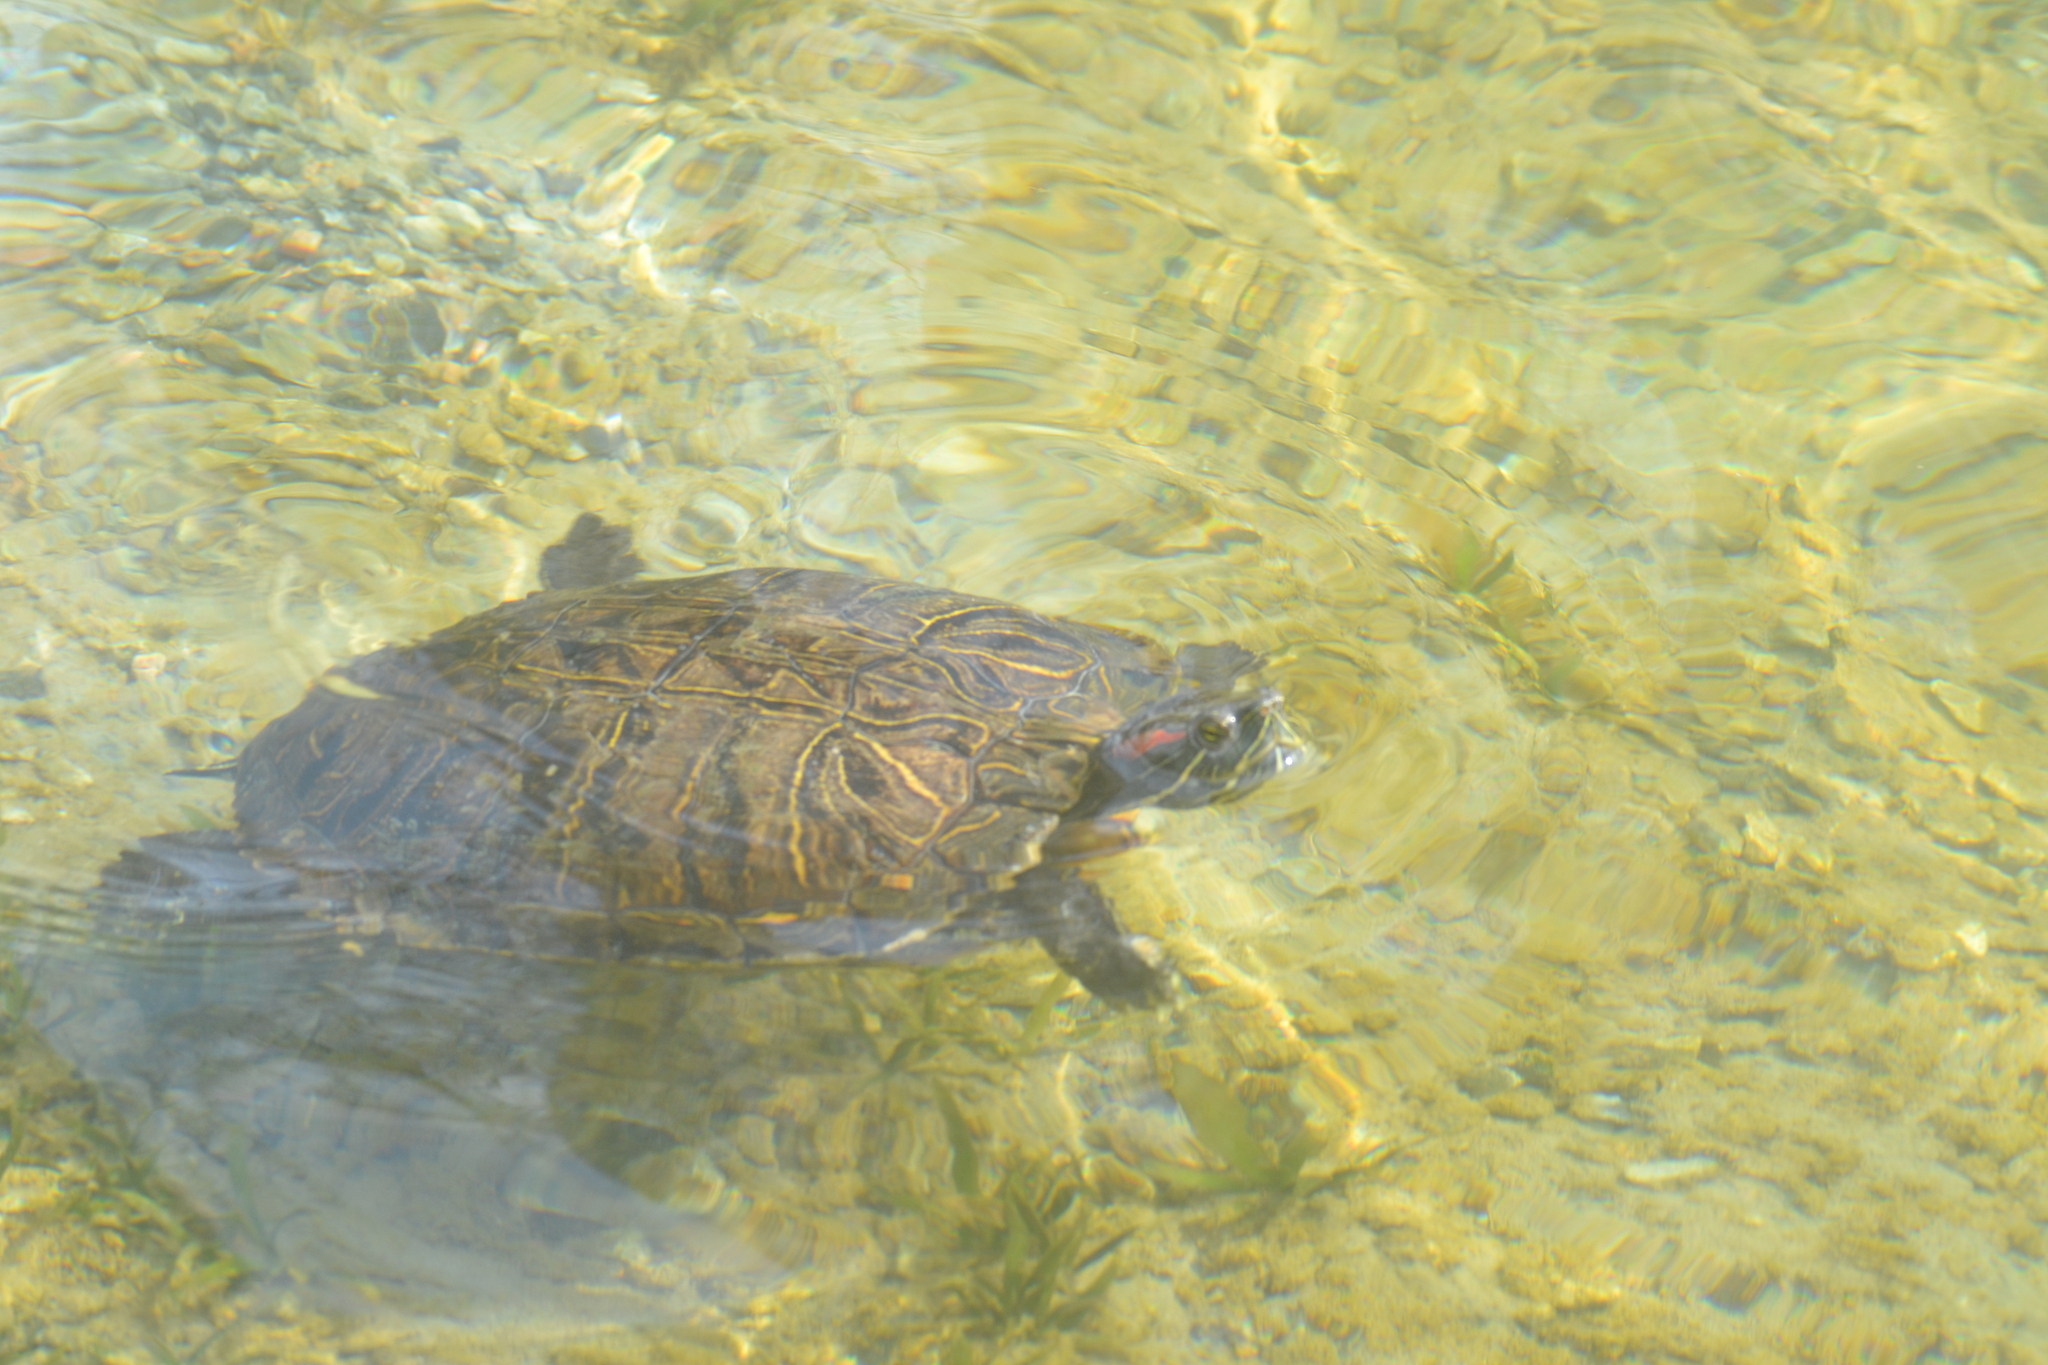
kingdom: Animalia
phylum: Chordata
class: Testudines
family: Emydidae
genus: Trachemys
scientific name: Trachemys scripta
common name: Slider
